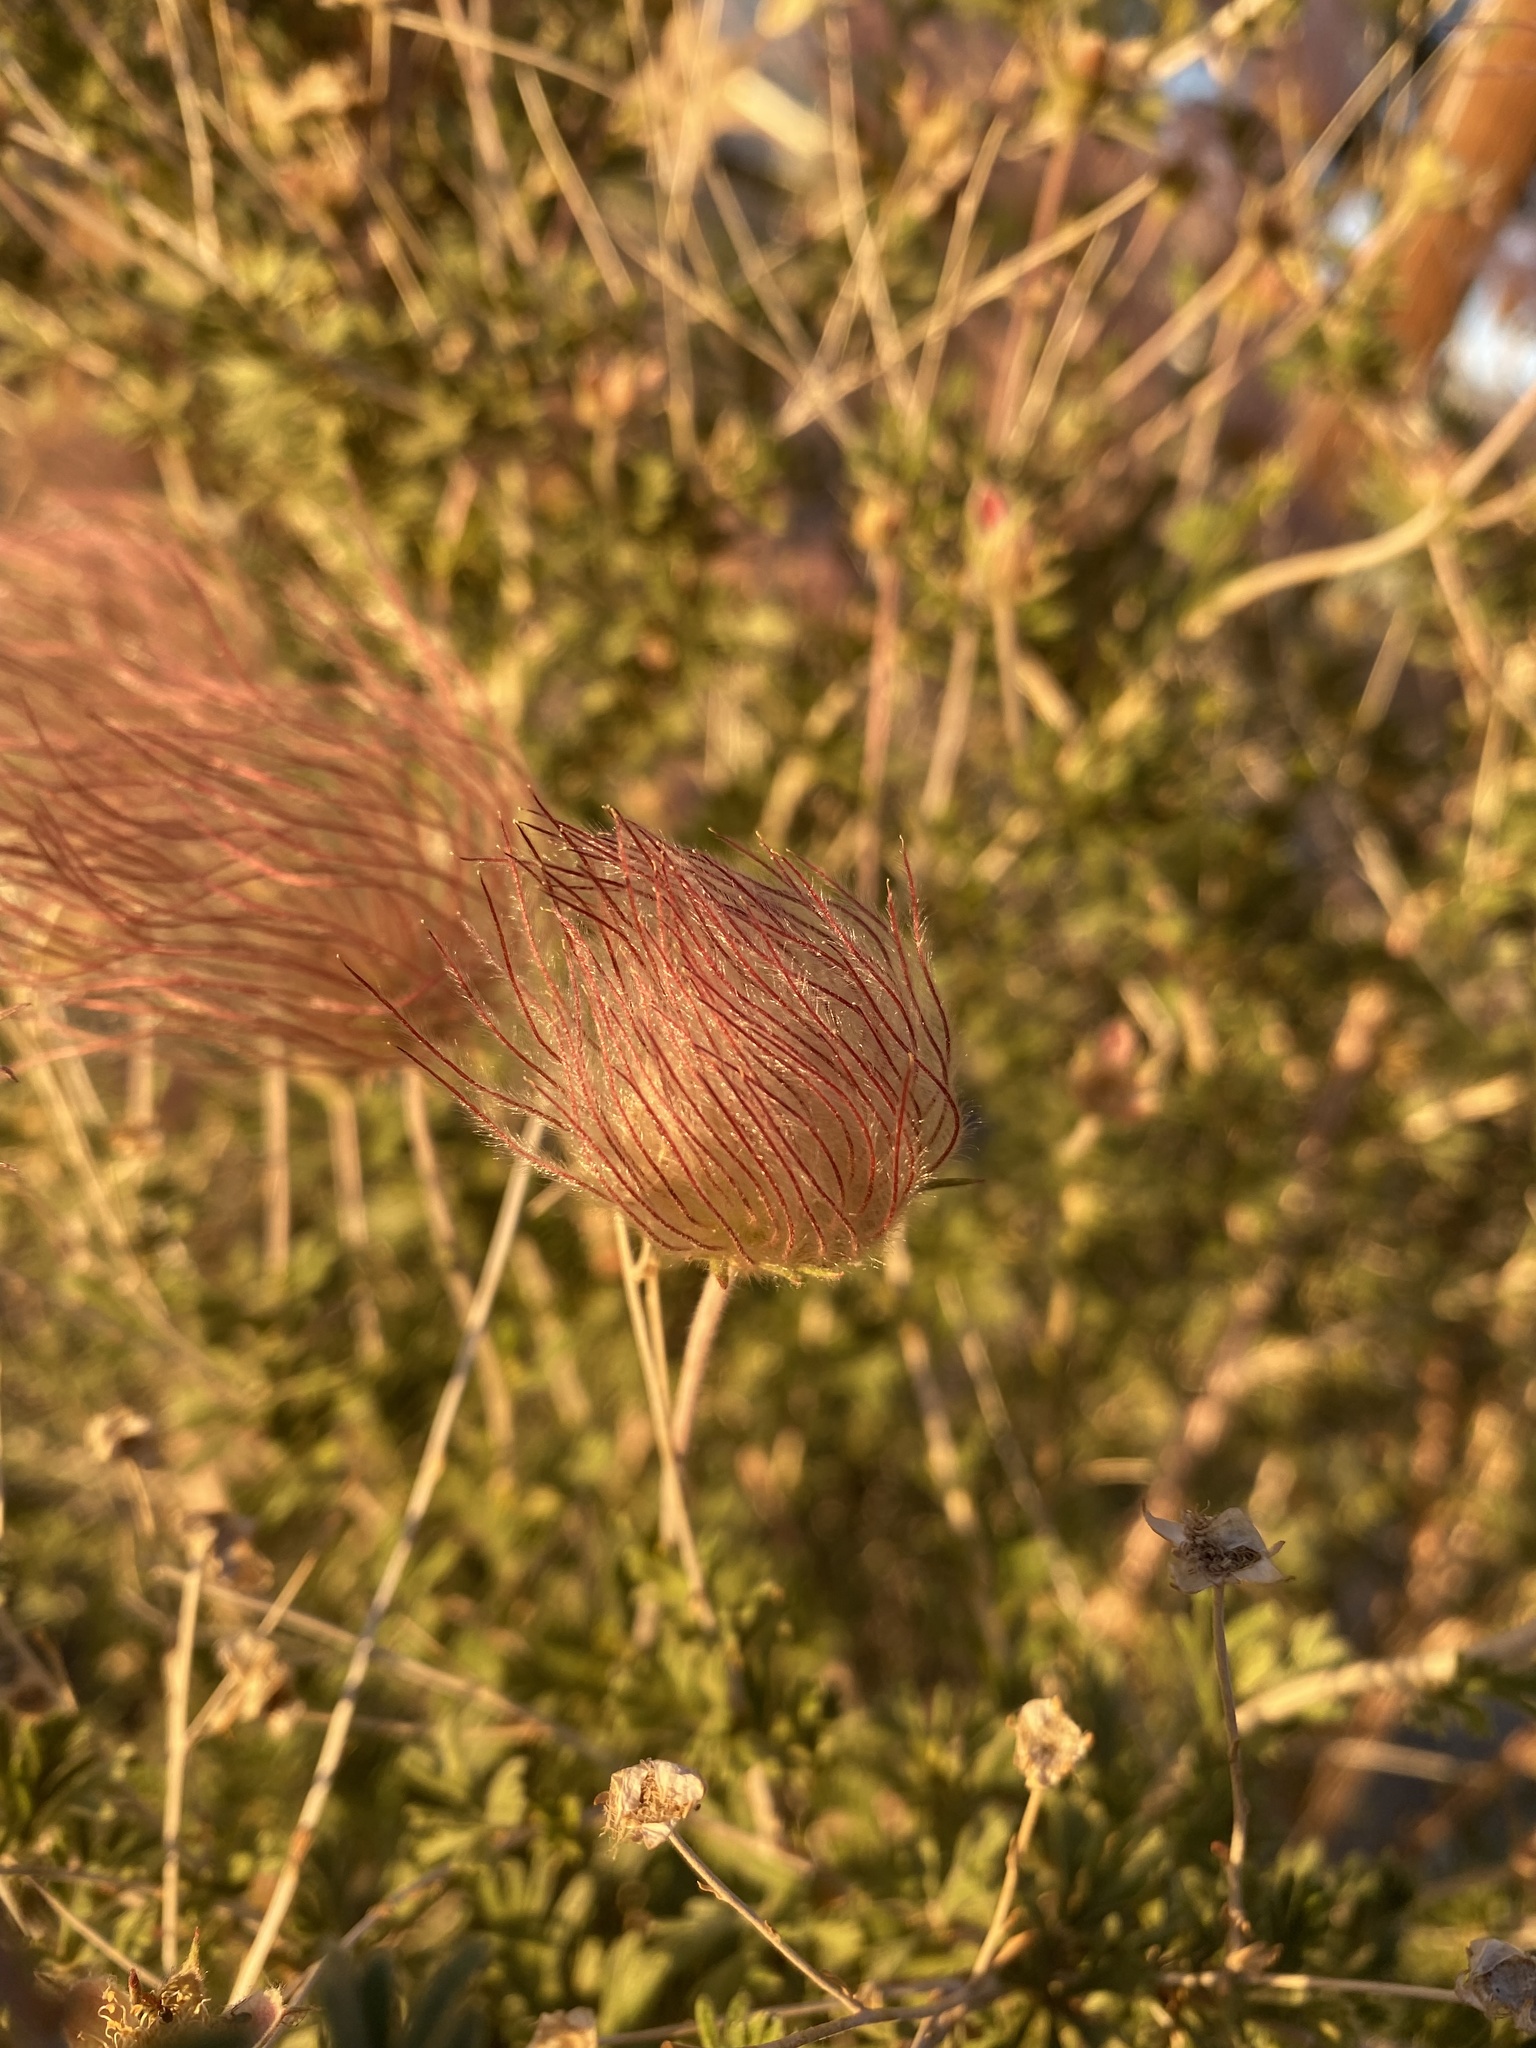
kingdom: Plantae
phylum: Tracheophyta
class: Magnoliopsida
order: Rosales
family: Rosaceae
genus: Fallugia
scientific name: Fallugia paradoxa
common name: Apache-plume
